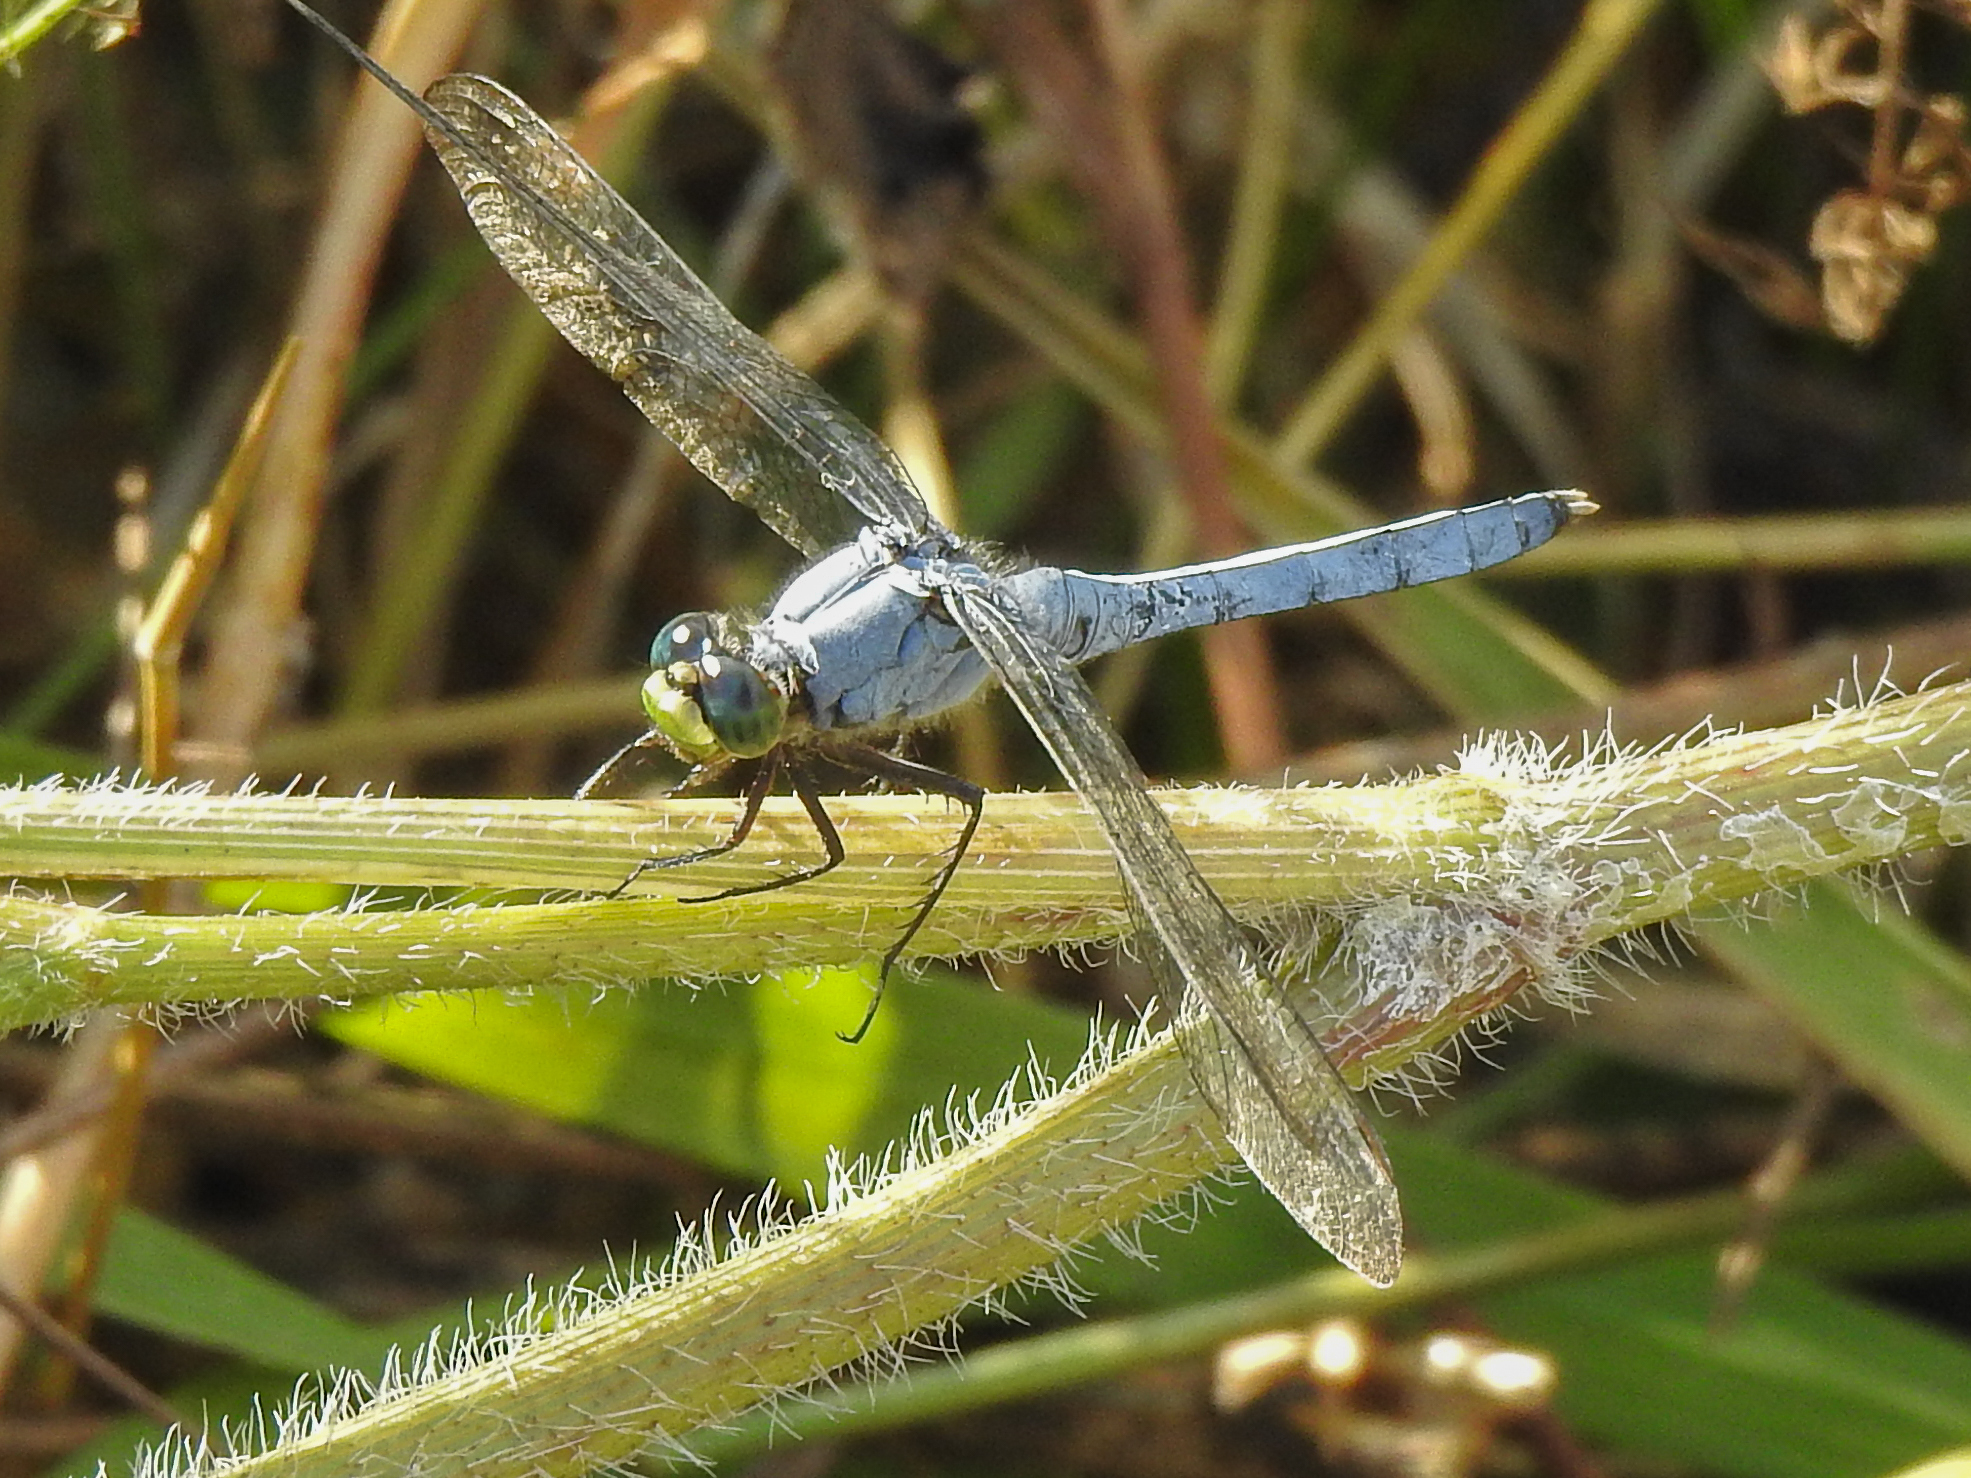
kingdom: Animalia
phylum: Arthropoda
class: Insecta
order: Odonata
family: Libellulidae
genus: Erythemis
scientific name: Erythemis simplicicollis
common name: Eastern pondhawk
